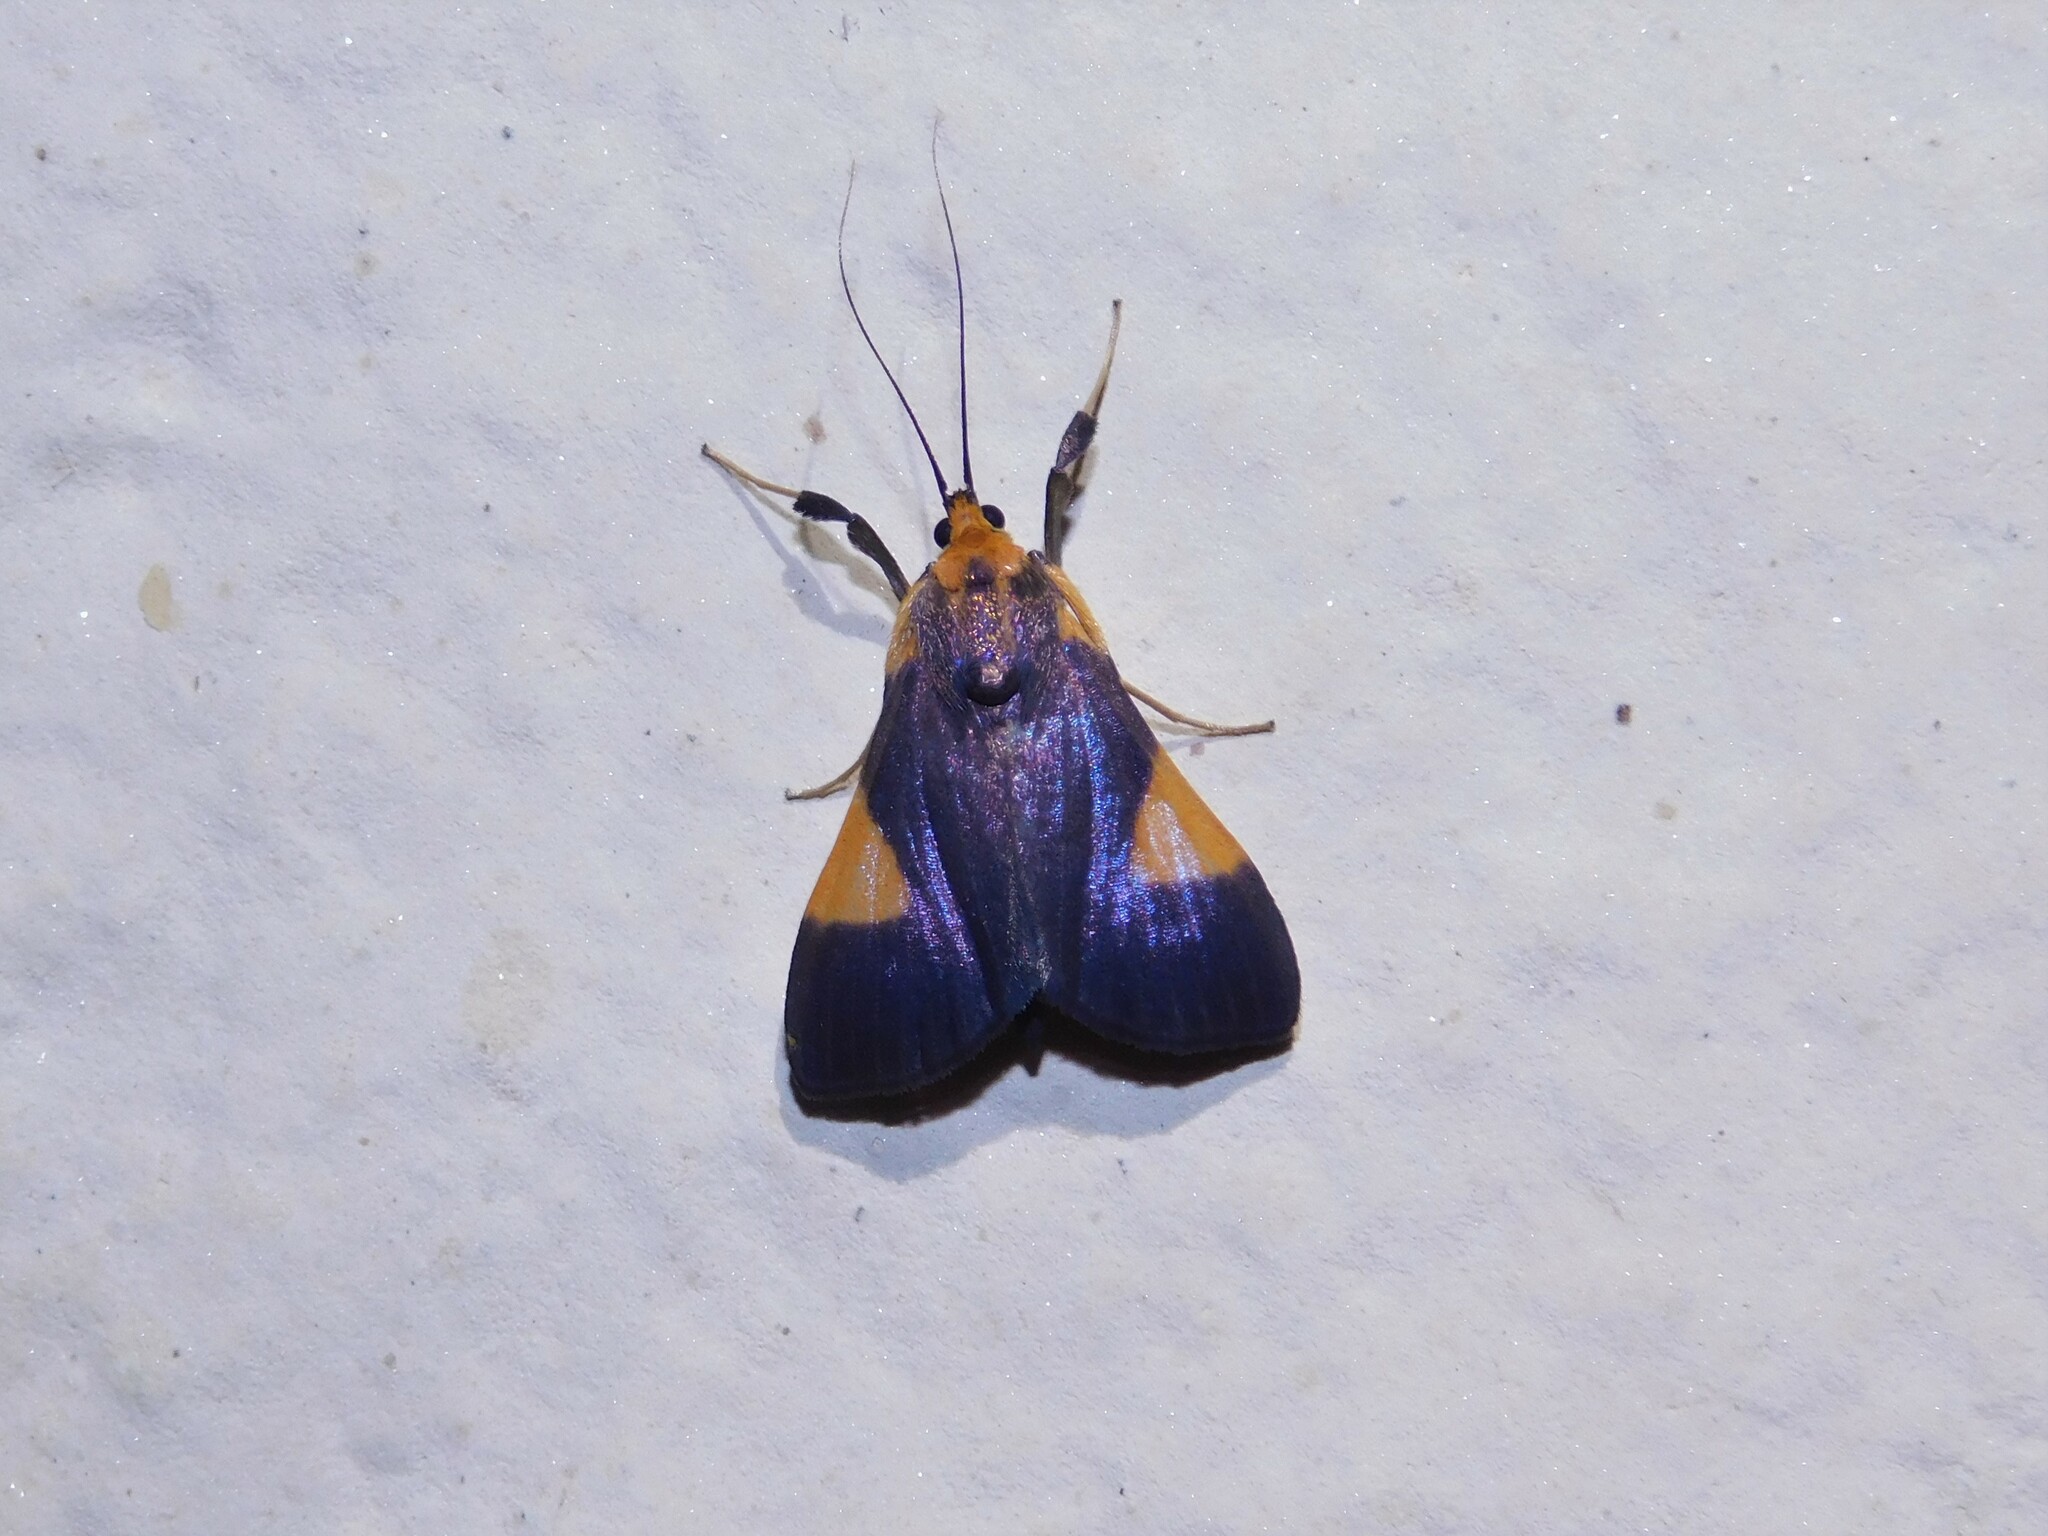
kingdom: Animalia
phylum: Arthropoda
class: Insecta
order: Lepidoptera
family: Crambidae
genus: Ulopeza
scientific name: Ulopeza conigeralis
